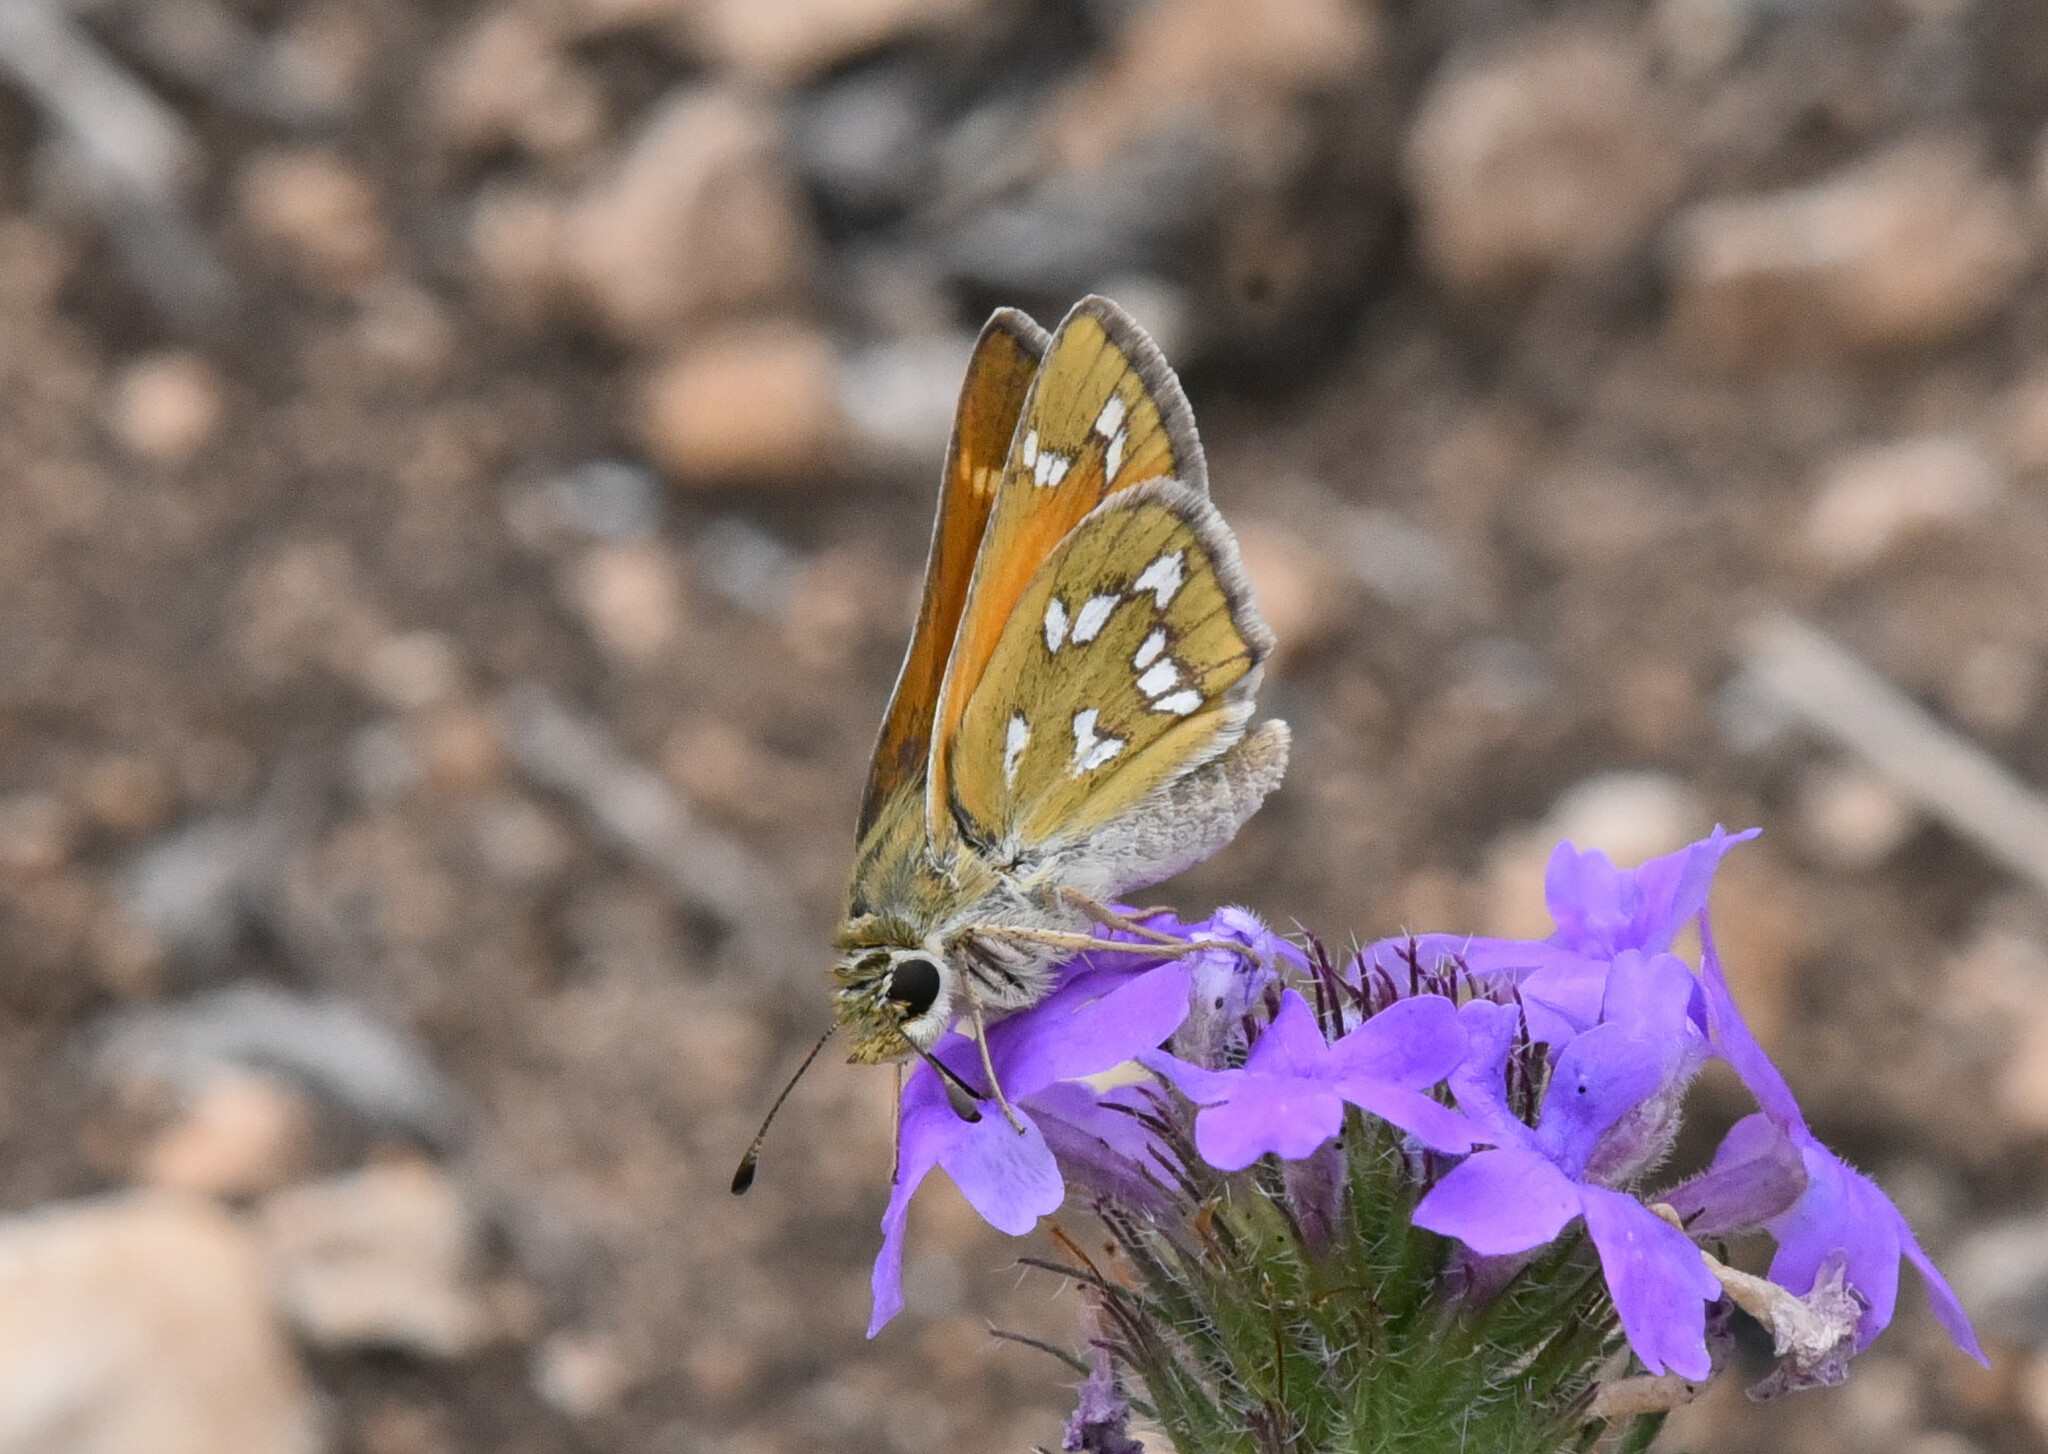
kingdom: Animalia
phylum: Arthropoda
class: Insecta
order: Lepidoptera
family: Hesperiidae
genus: Hesperia
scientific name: Hesperia viridis
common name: Green skipper
